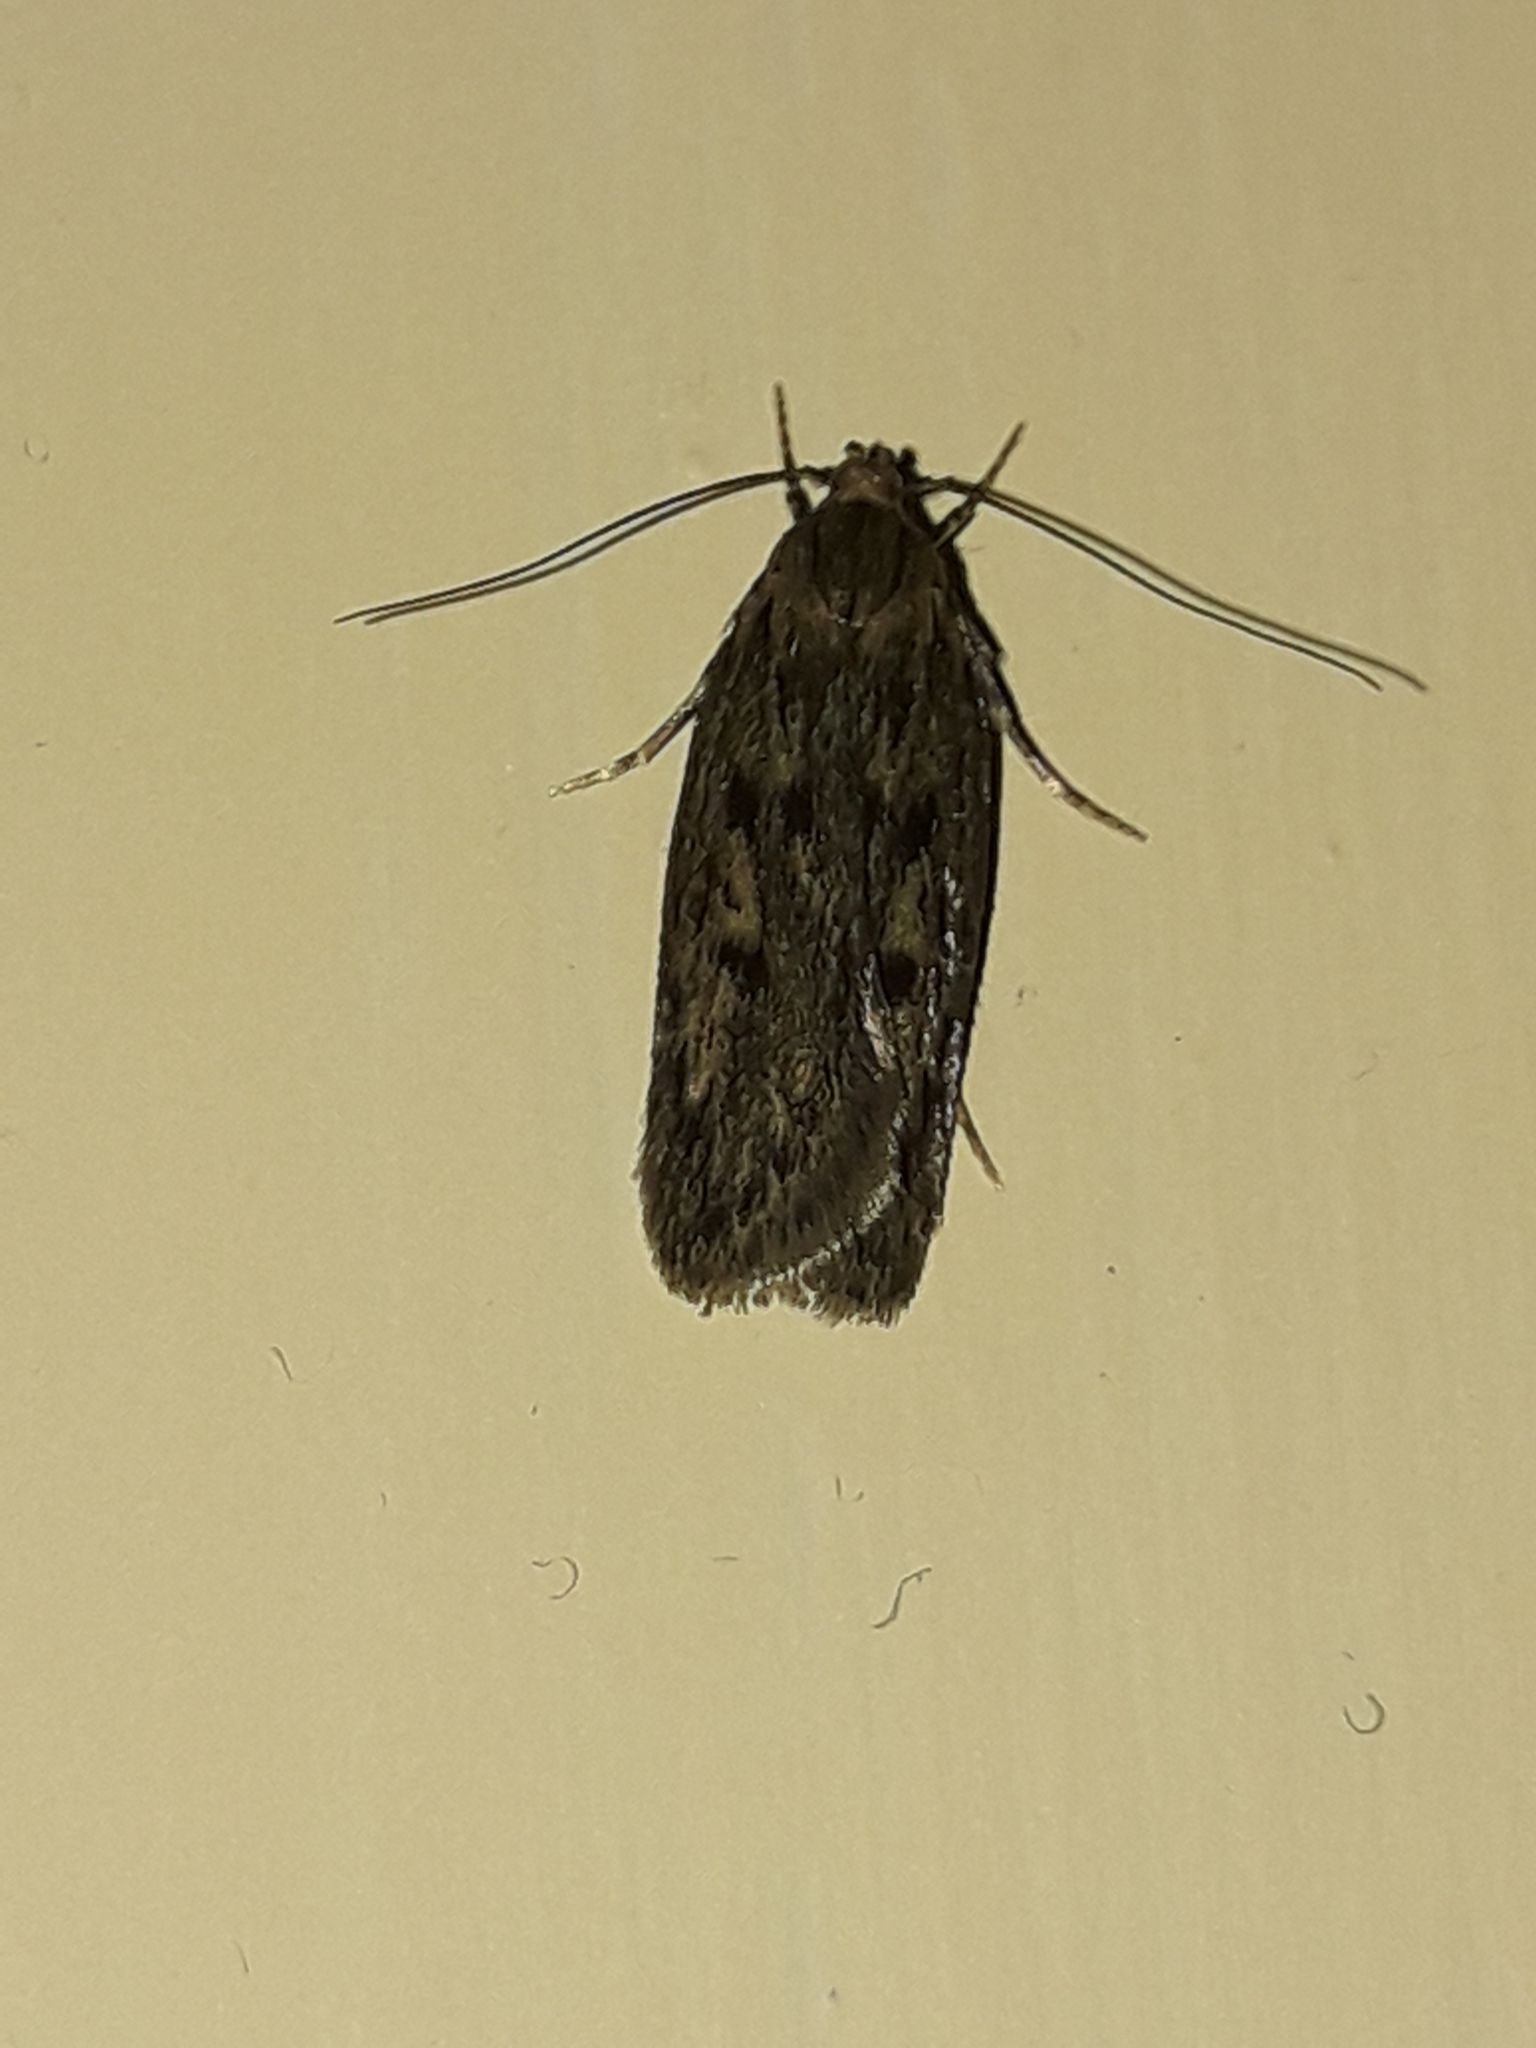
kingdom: Animalia
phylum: Arthropoda
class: Insecta
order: Lepidoptera
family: Oecophoridae
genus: Hofmannophila
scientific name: Hofmannophila pseudospretella
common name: Brown house moth
